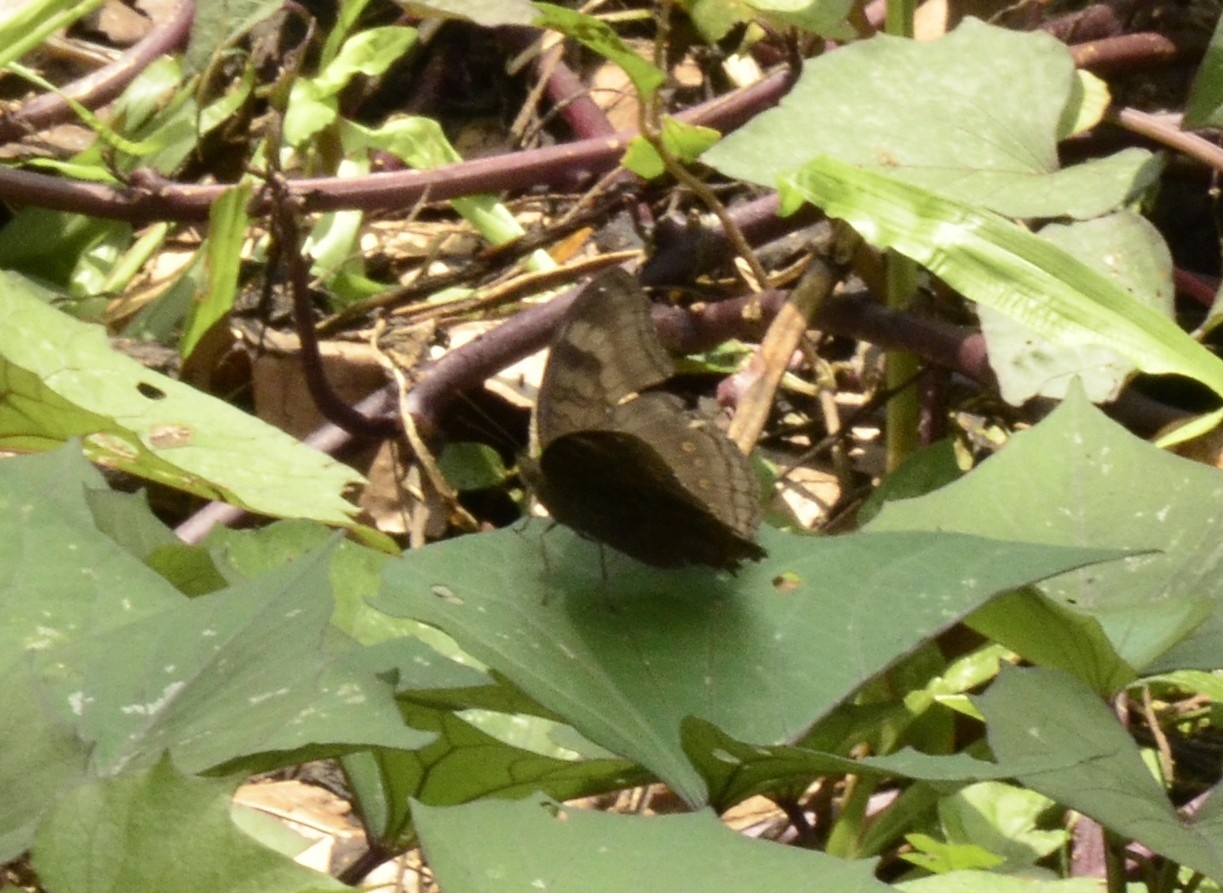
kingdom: Animalia
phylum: Arthropoda
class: Insecta
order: Lepidoptera
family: Nymphalidae
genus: Junonia
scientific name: Junonia iphita
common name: Chocolate pansy
